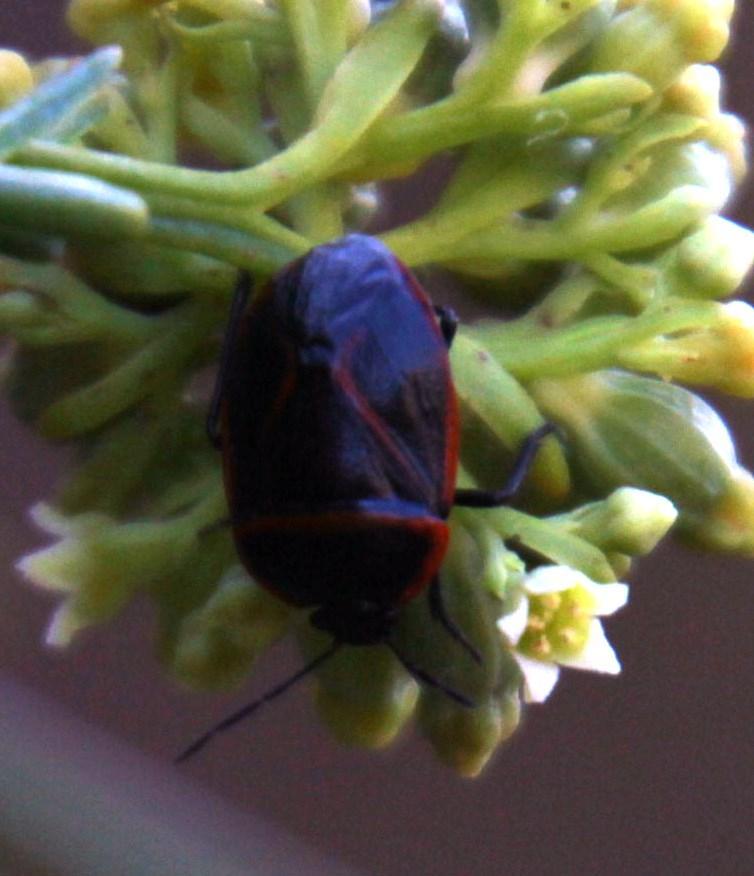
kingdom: Plantae
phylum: Tracheophyta
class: Magnoliopsida
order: Santalales
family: Thesiaceae
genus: Thesium
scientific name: Thesium strictum
